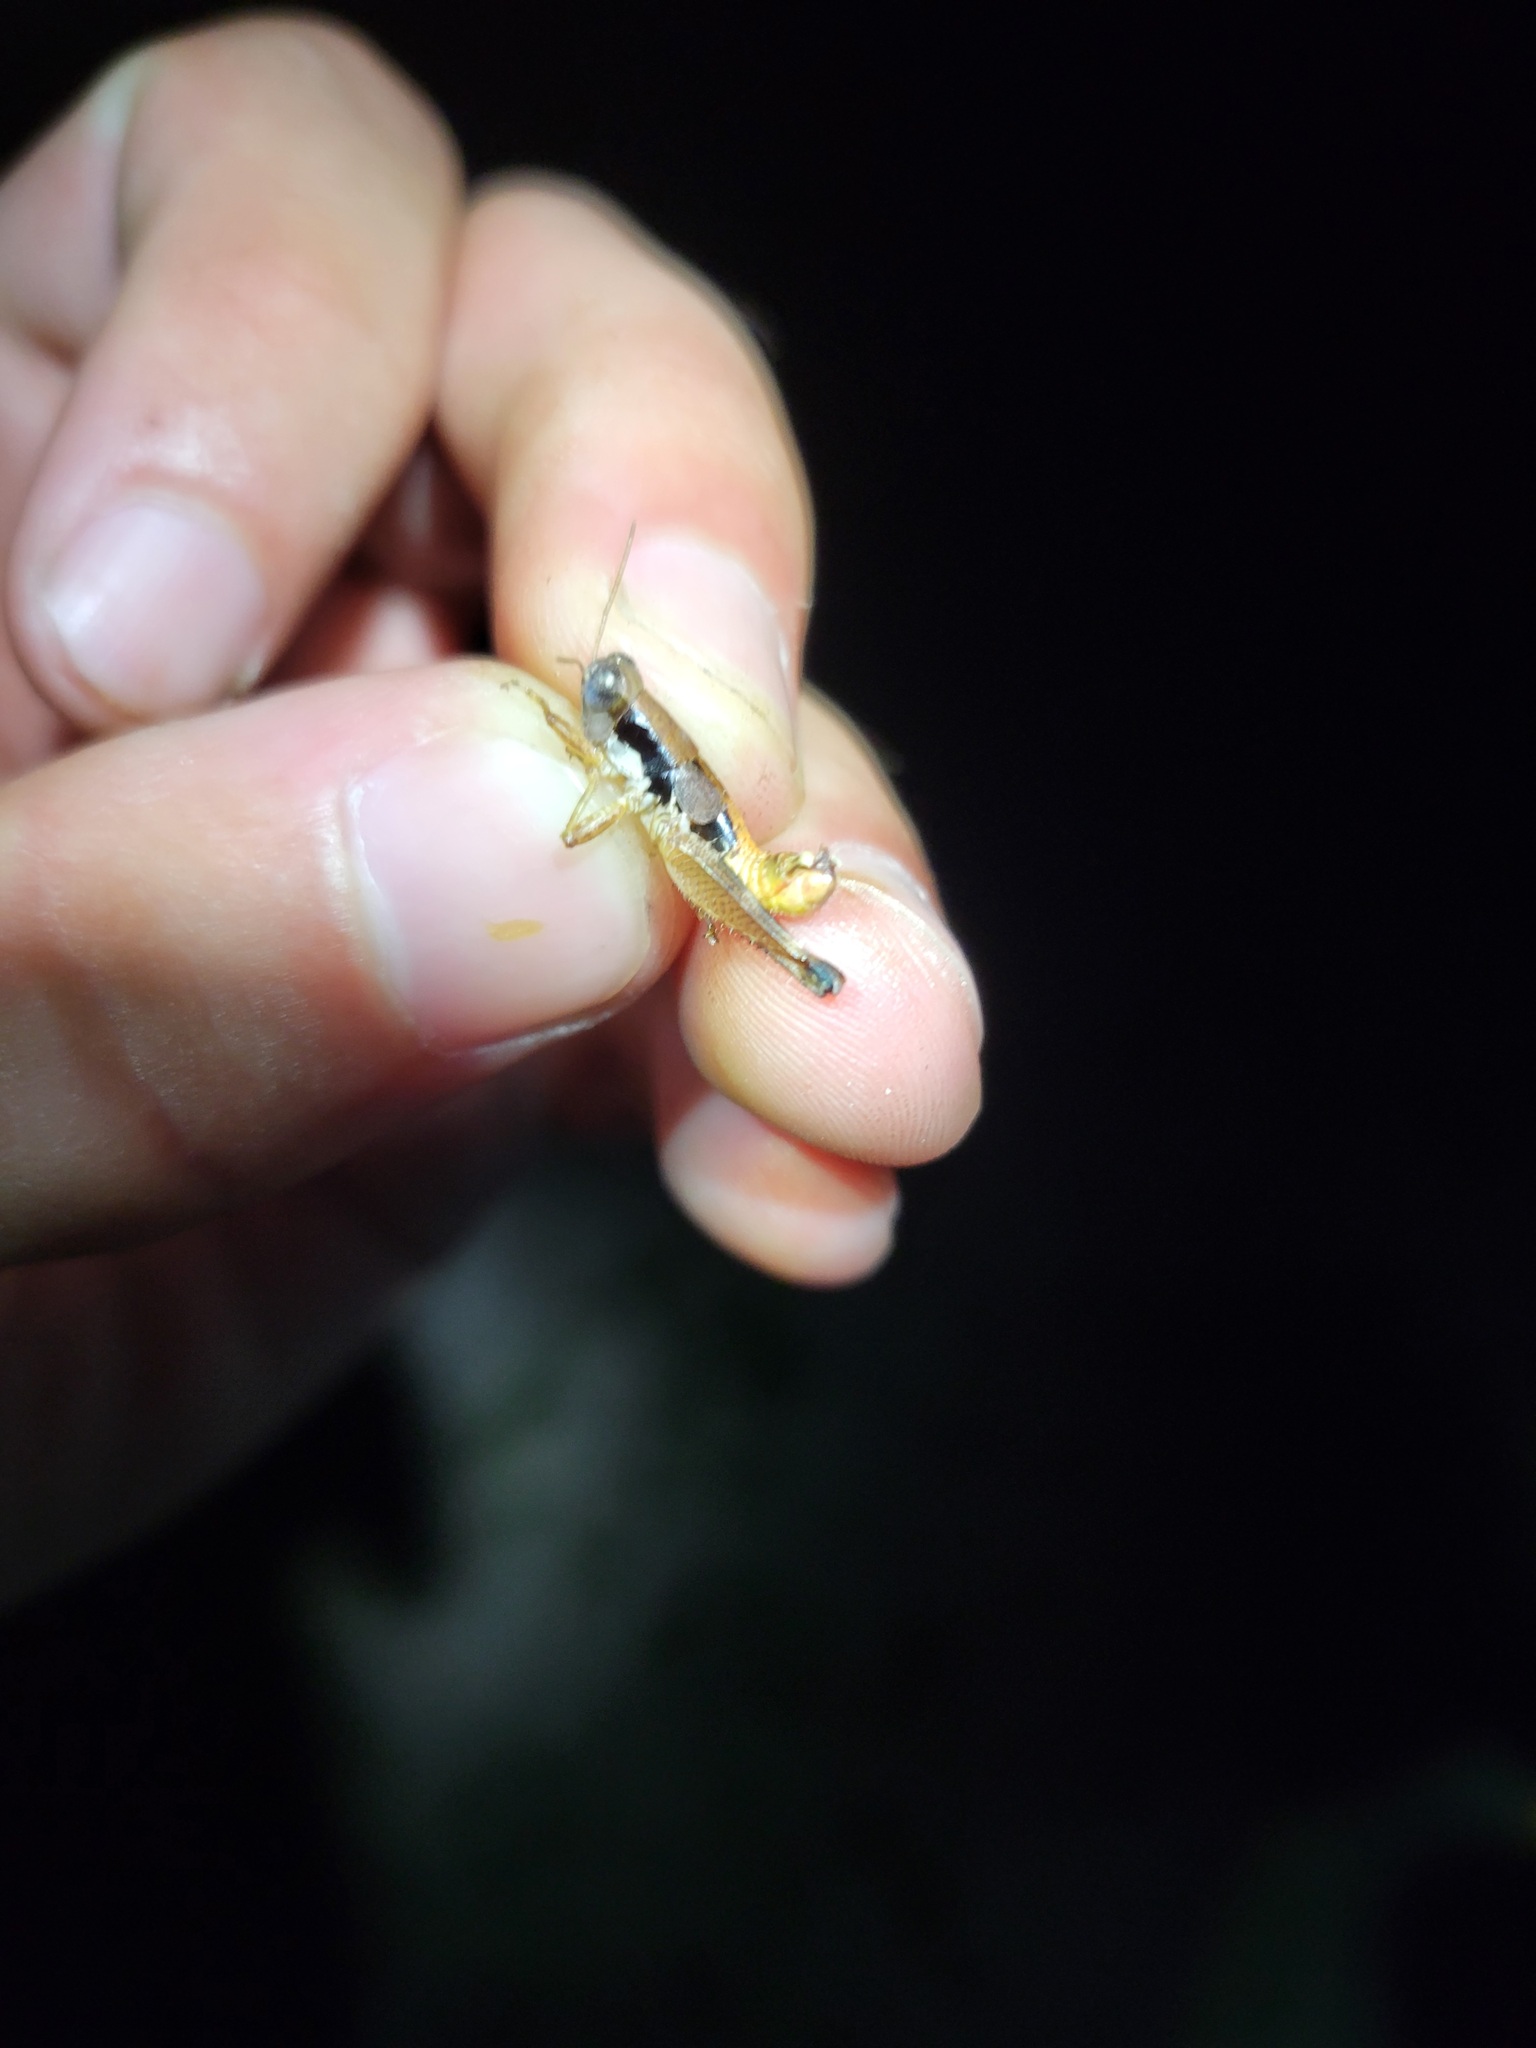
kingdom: Animalia
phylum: Arthropoda
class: Insecta
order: Orthoptera
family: Acrididae
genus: Melanoplus
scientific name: Melanoplus withlacoocheensis
